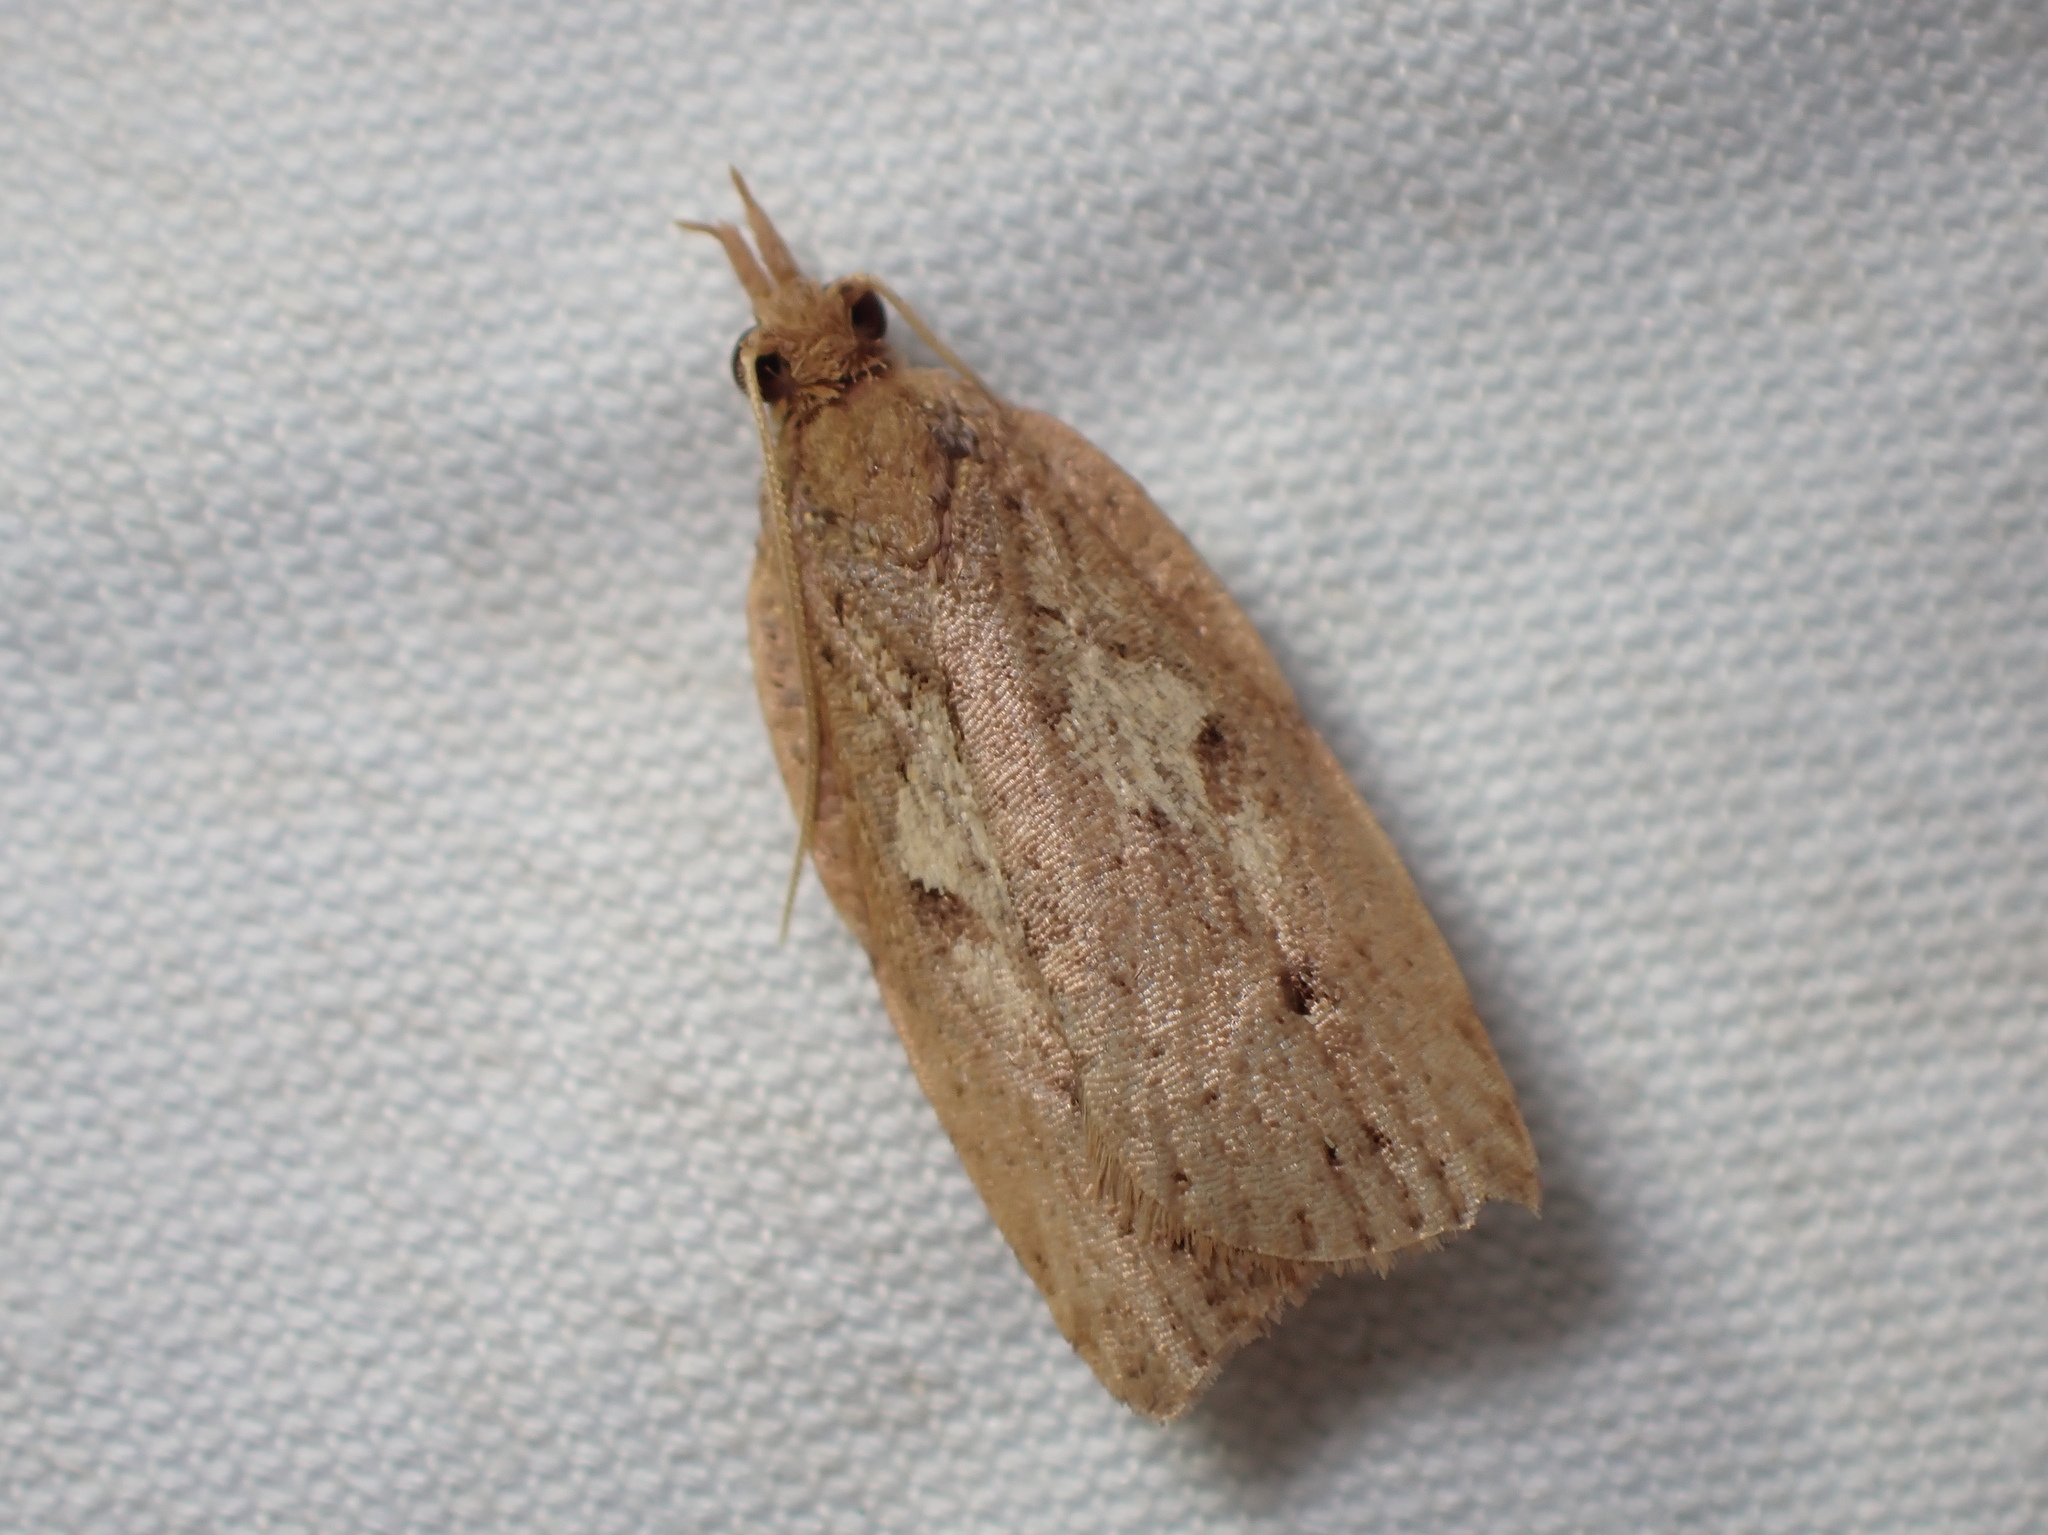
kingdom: Animalia
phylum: Arthropoda
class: Insecta
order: Lepidoptera
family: Tortricidae
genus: Planotortrix
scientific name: Planotortrix notophaea
